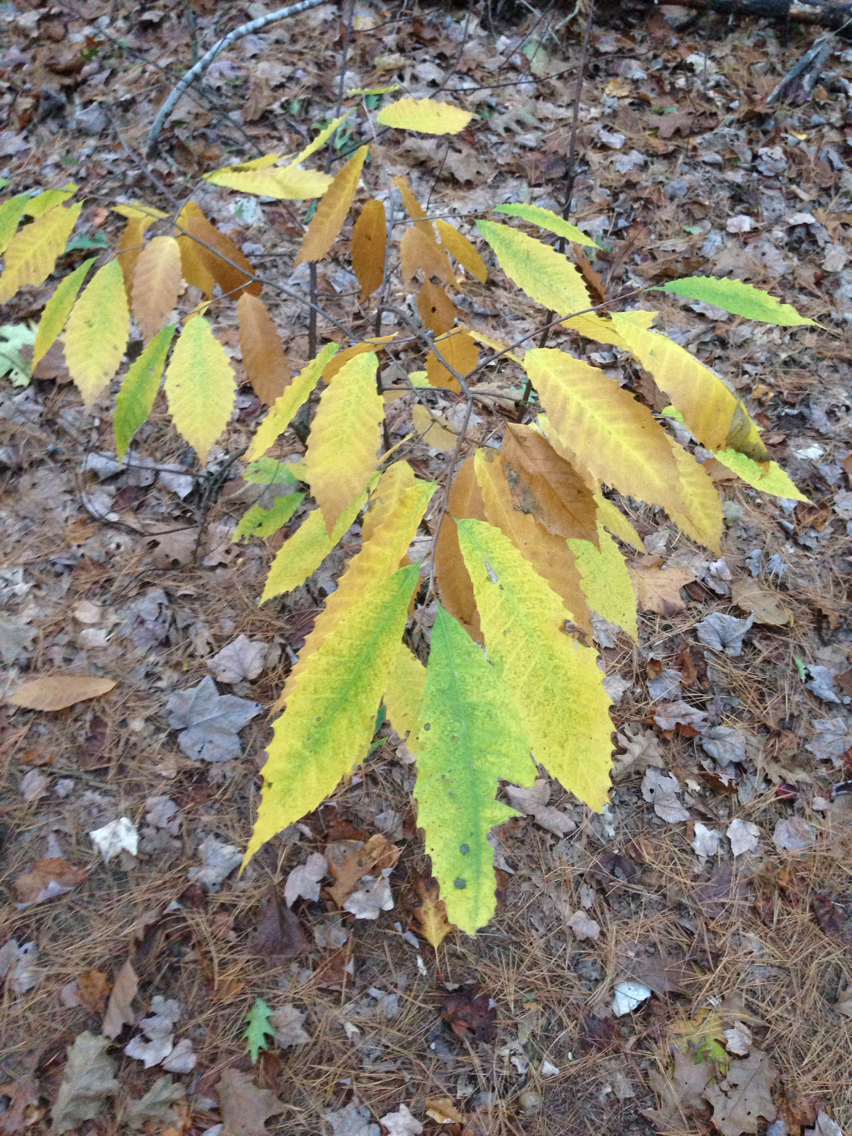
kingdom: Plantae
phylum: Tracheophyta
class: Magnoliopsida
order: Fagales
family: Fagaceae
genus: Castanea
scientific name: Castanea dentata
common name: American chestnut
